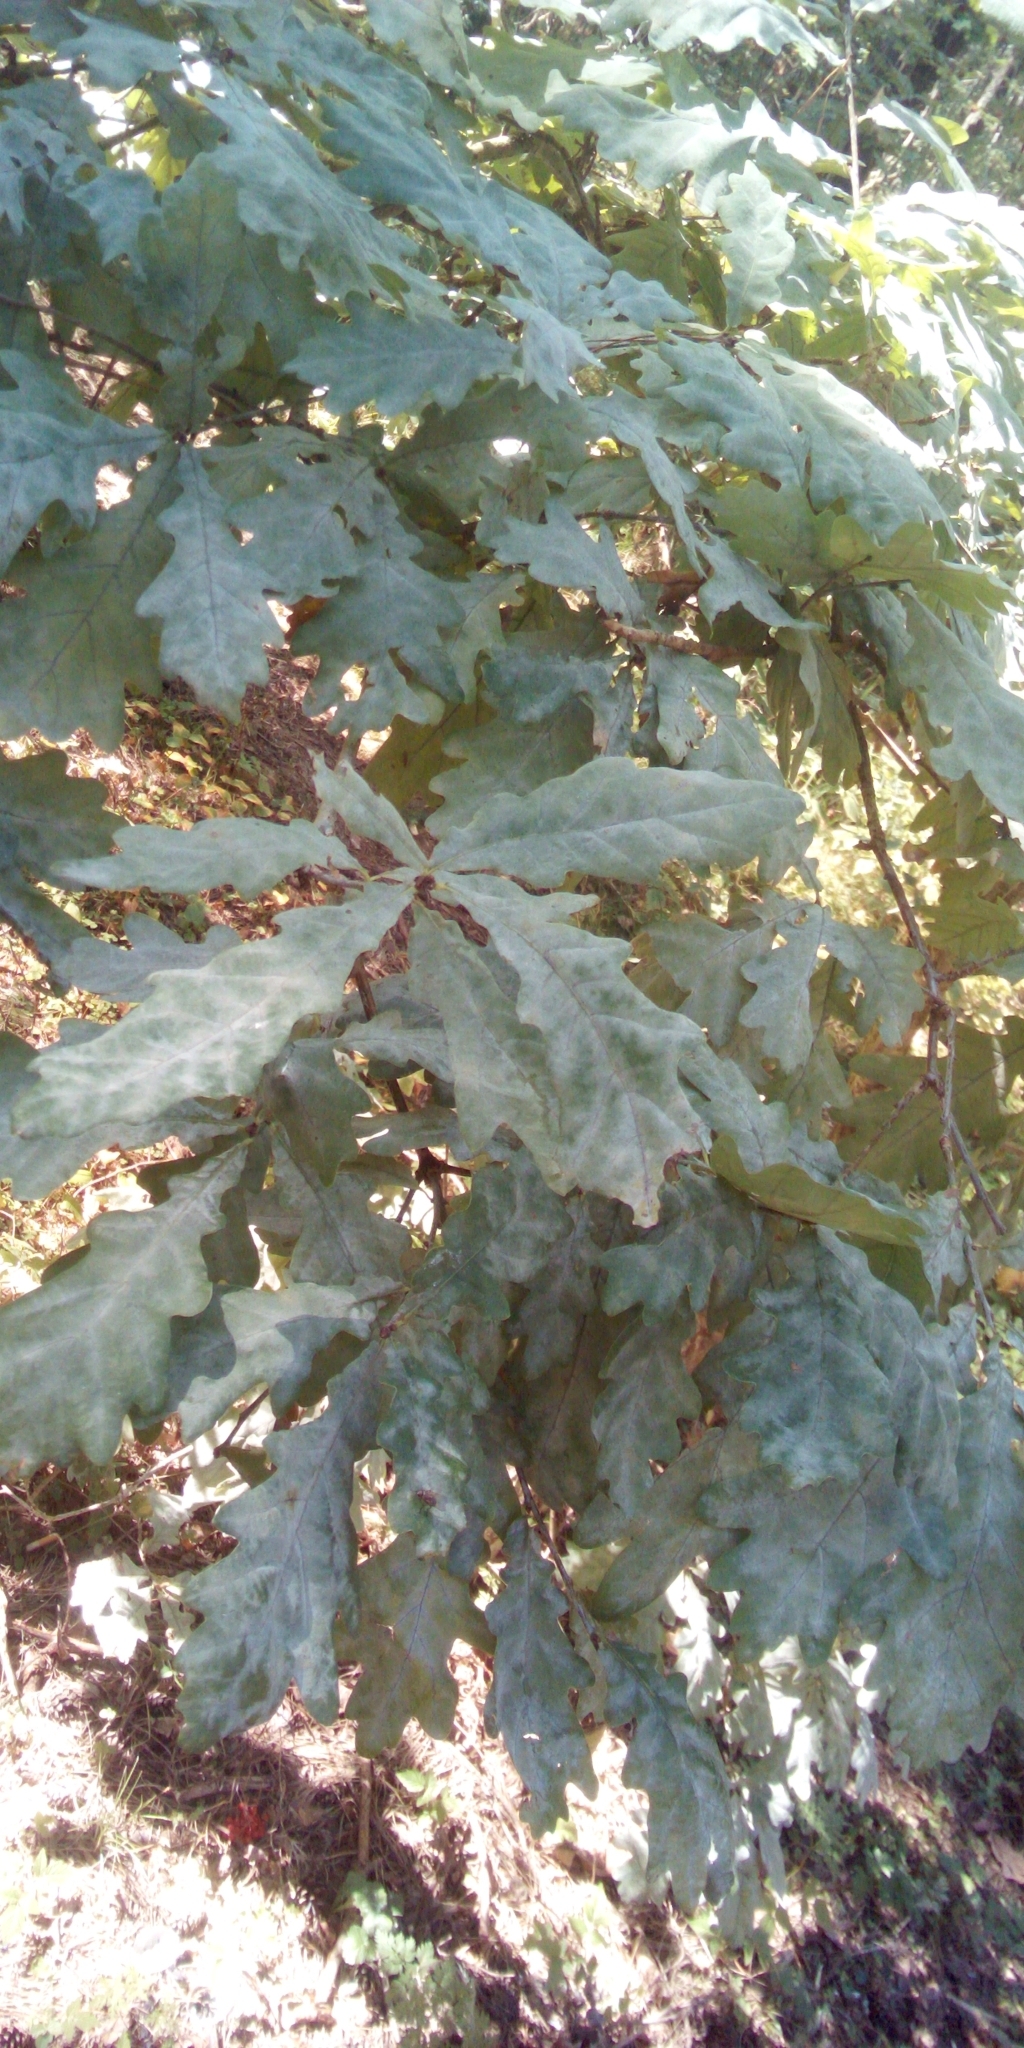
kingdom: Plantae
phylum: Tracheophyta
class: Magnoliopsida
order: Fagales
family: Fagaceae
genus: Quercus
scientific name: Quercus robur
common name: Pedunculate oak
